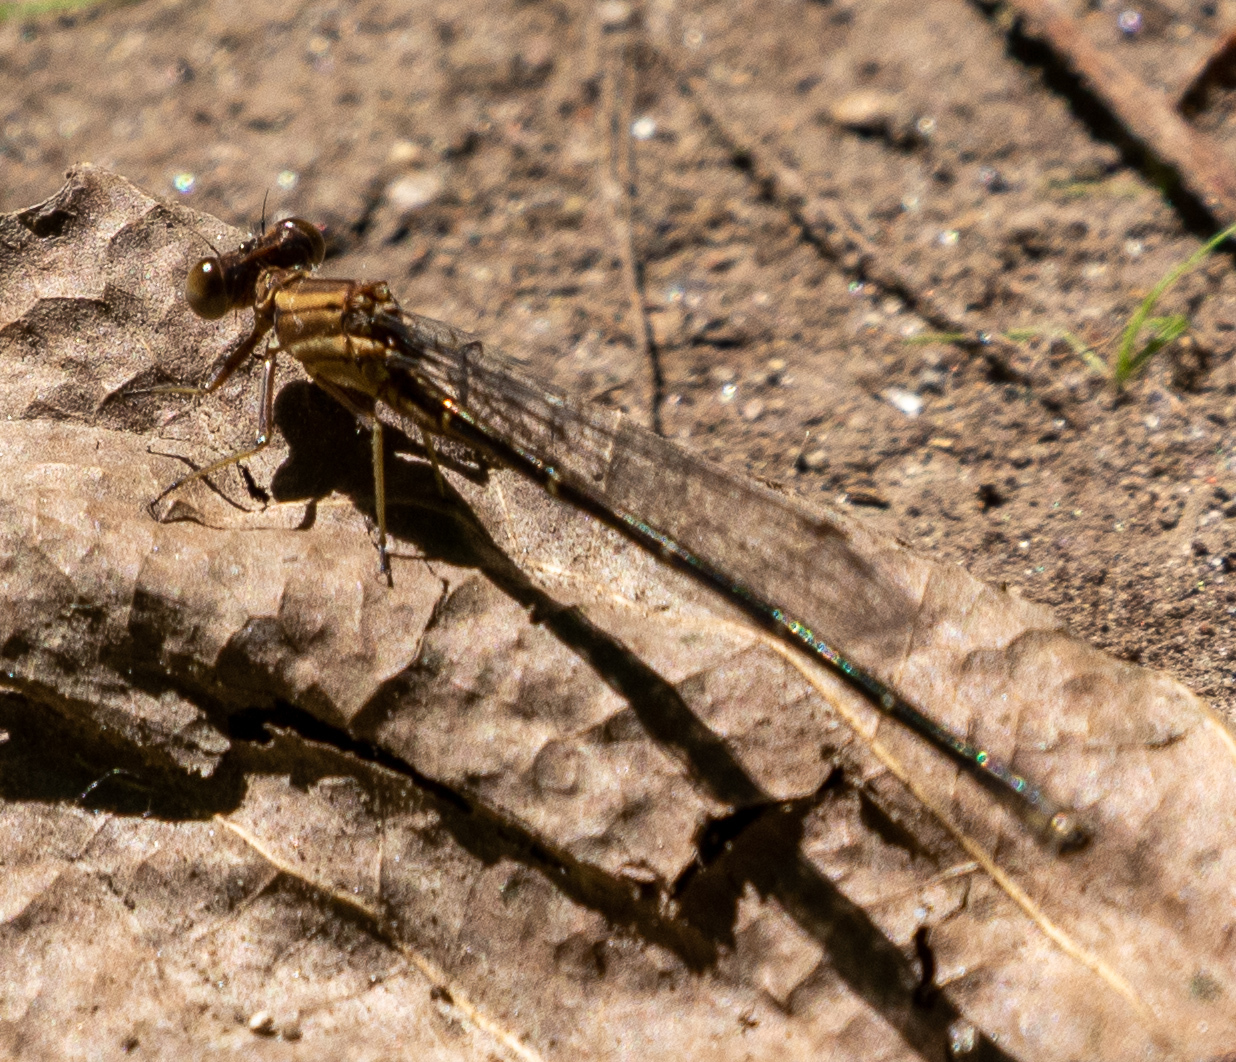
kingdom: Animalia
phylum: Arthropoda
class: Insecta
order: Odonata
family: Coenagrionidae
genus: Argia
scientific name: Argia moesta
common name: Powdered dancer
